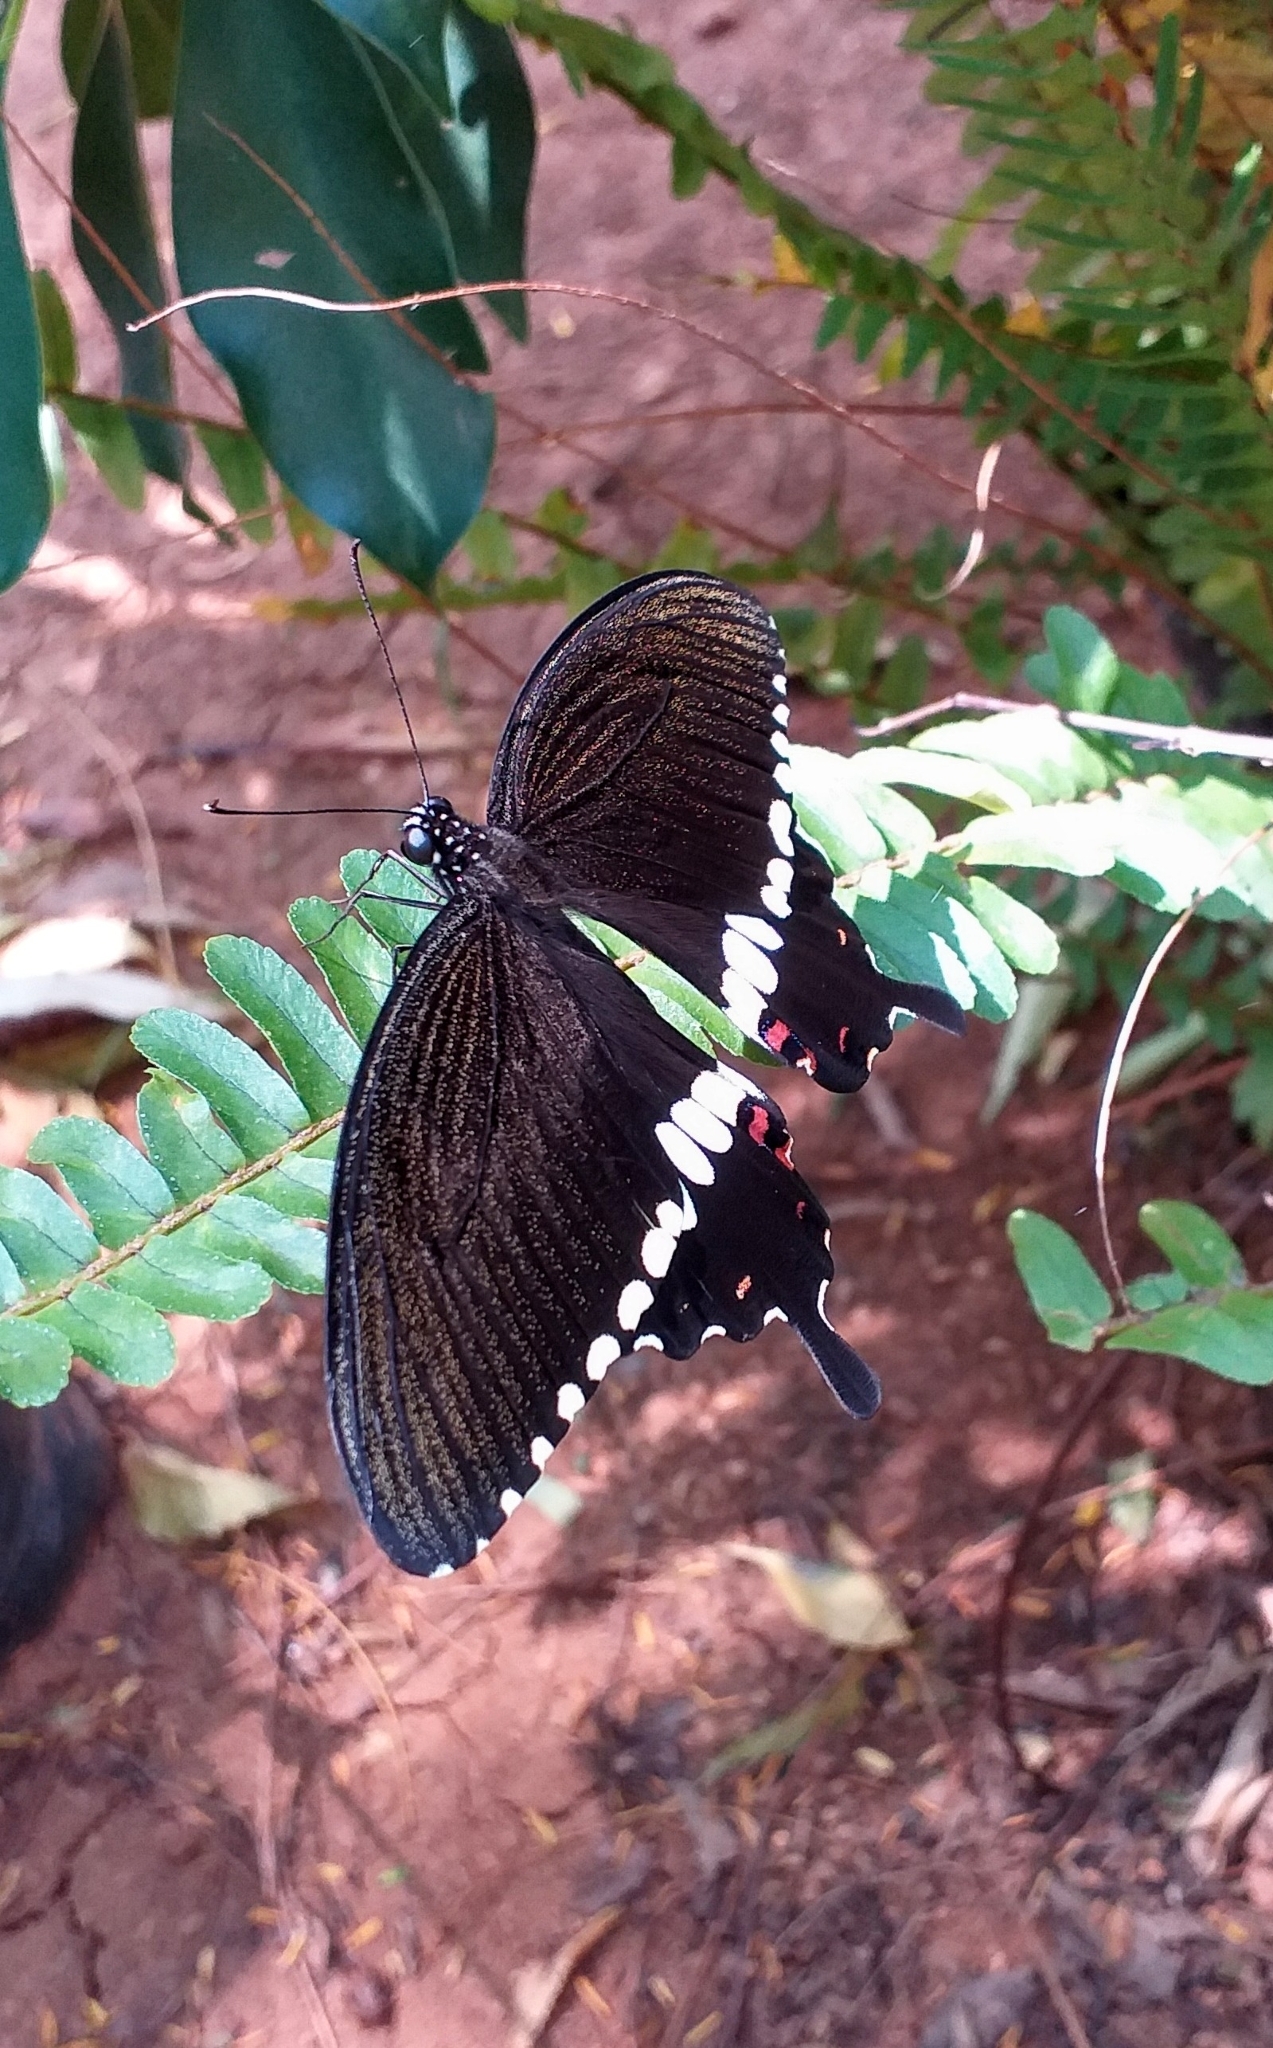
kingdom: Animalia
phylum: Arthropoda
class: Insecta
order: Lepidoptera
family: Papilionidae
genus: Papilio
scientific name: Papilio polytes
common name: Common mormon
